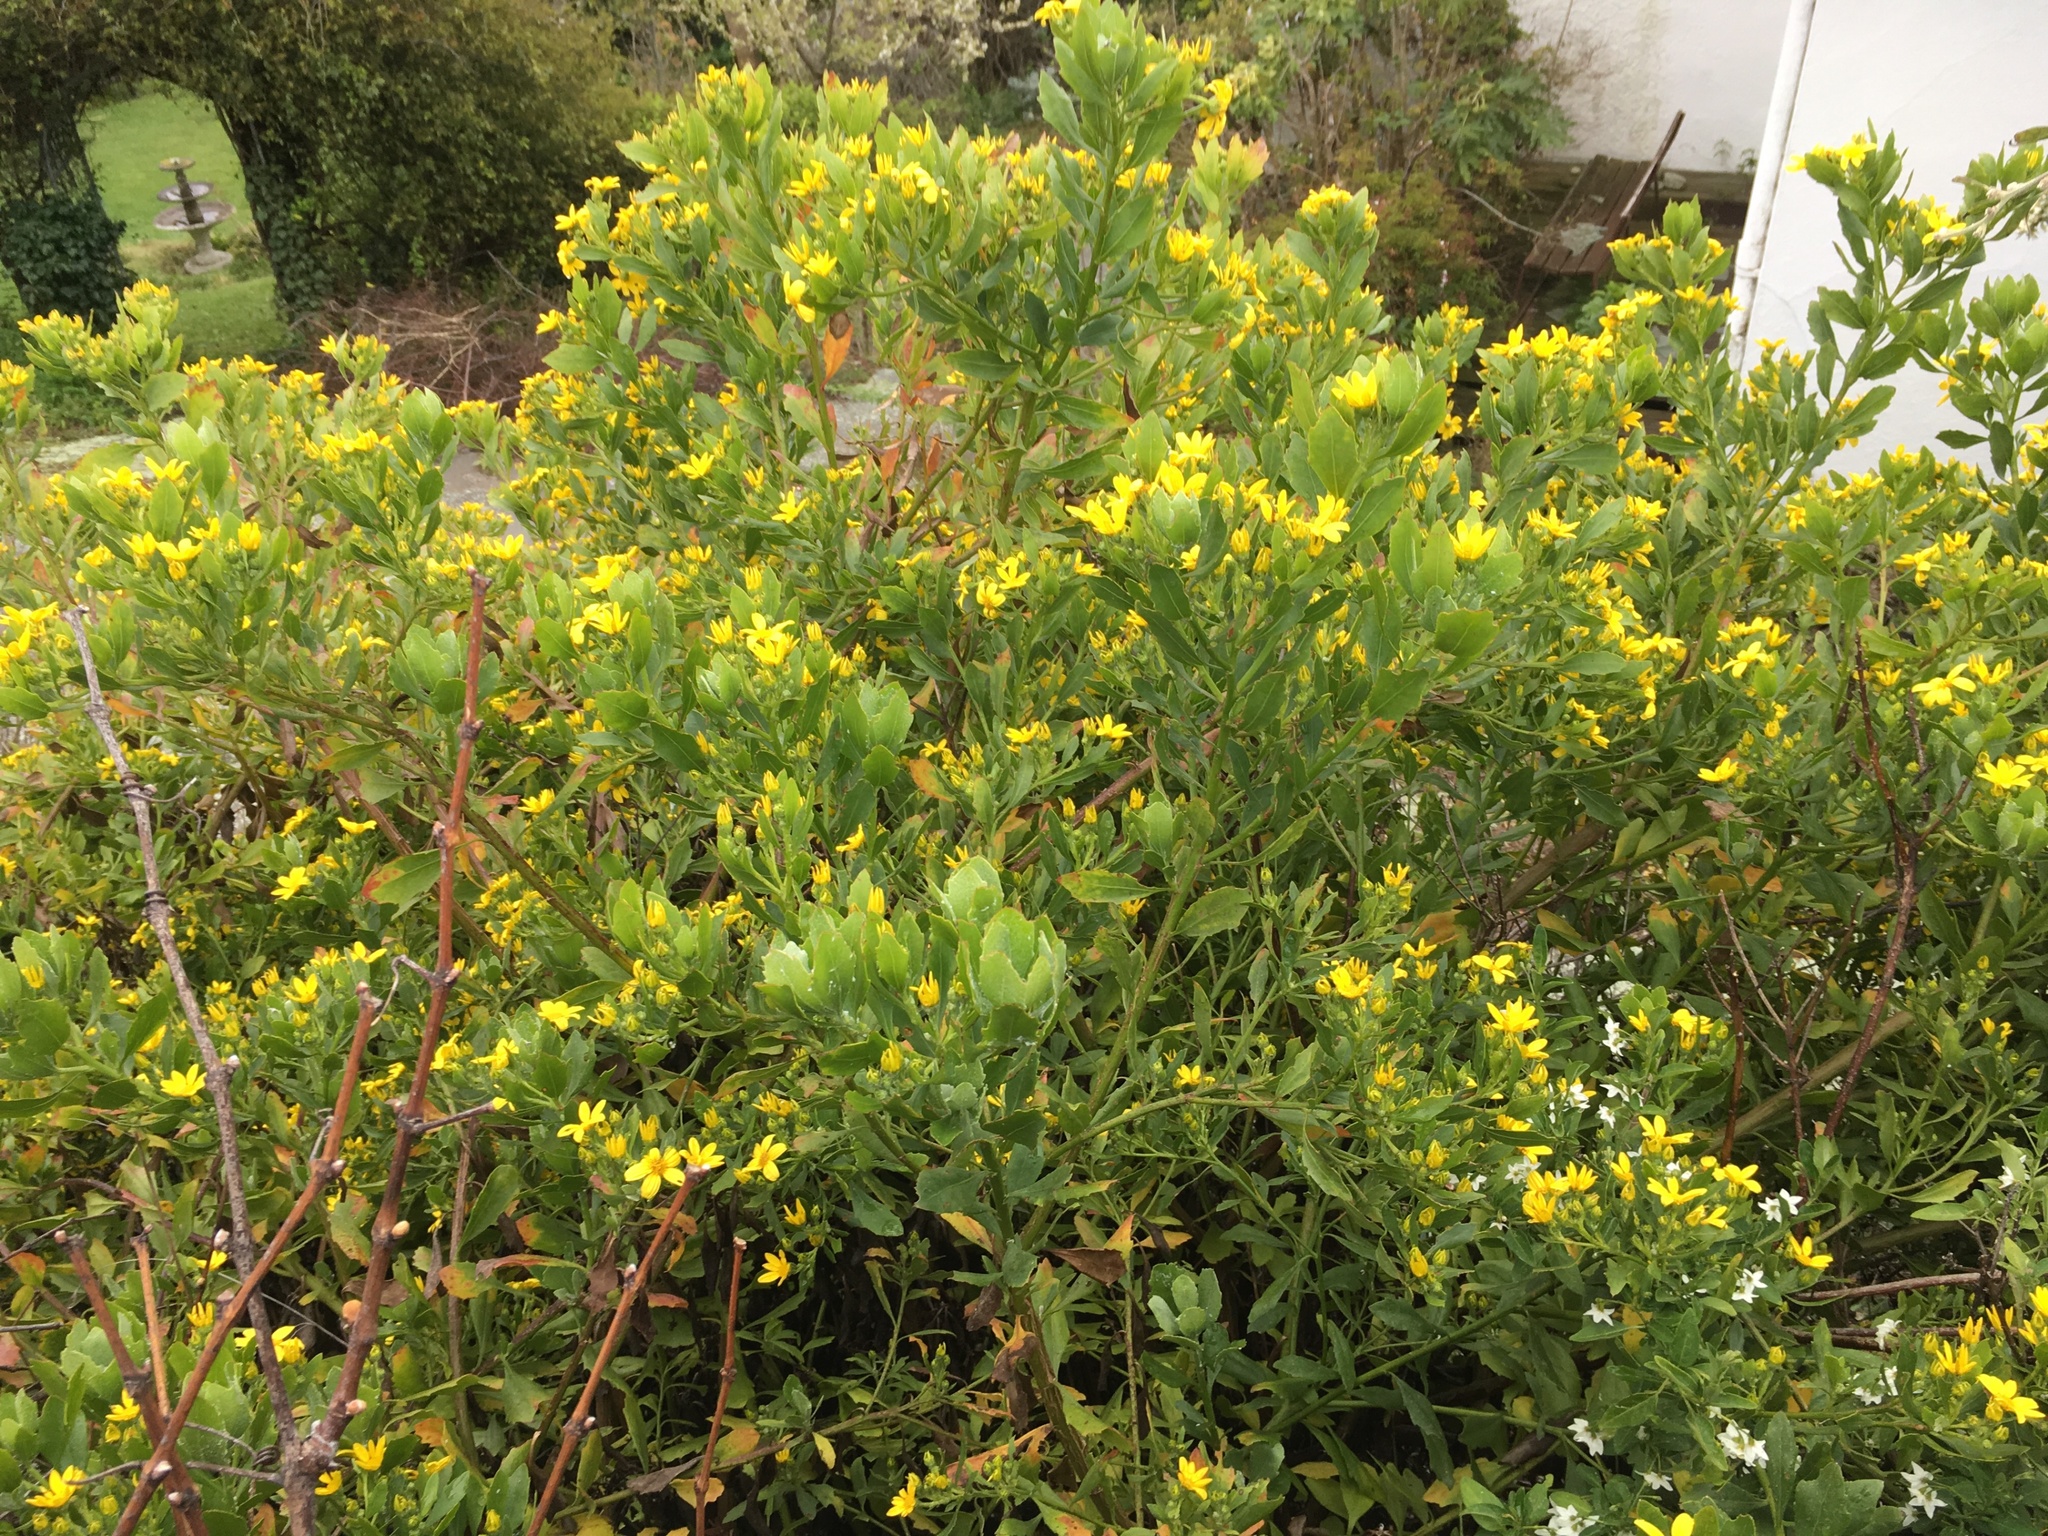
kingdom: Plantae
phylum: Tracheophyta
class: Magnoliopsida
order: Asterales
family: Asteraceae
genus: Osteospermum
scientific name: Osteospermum moniliferum
